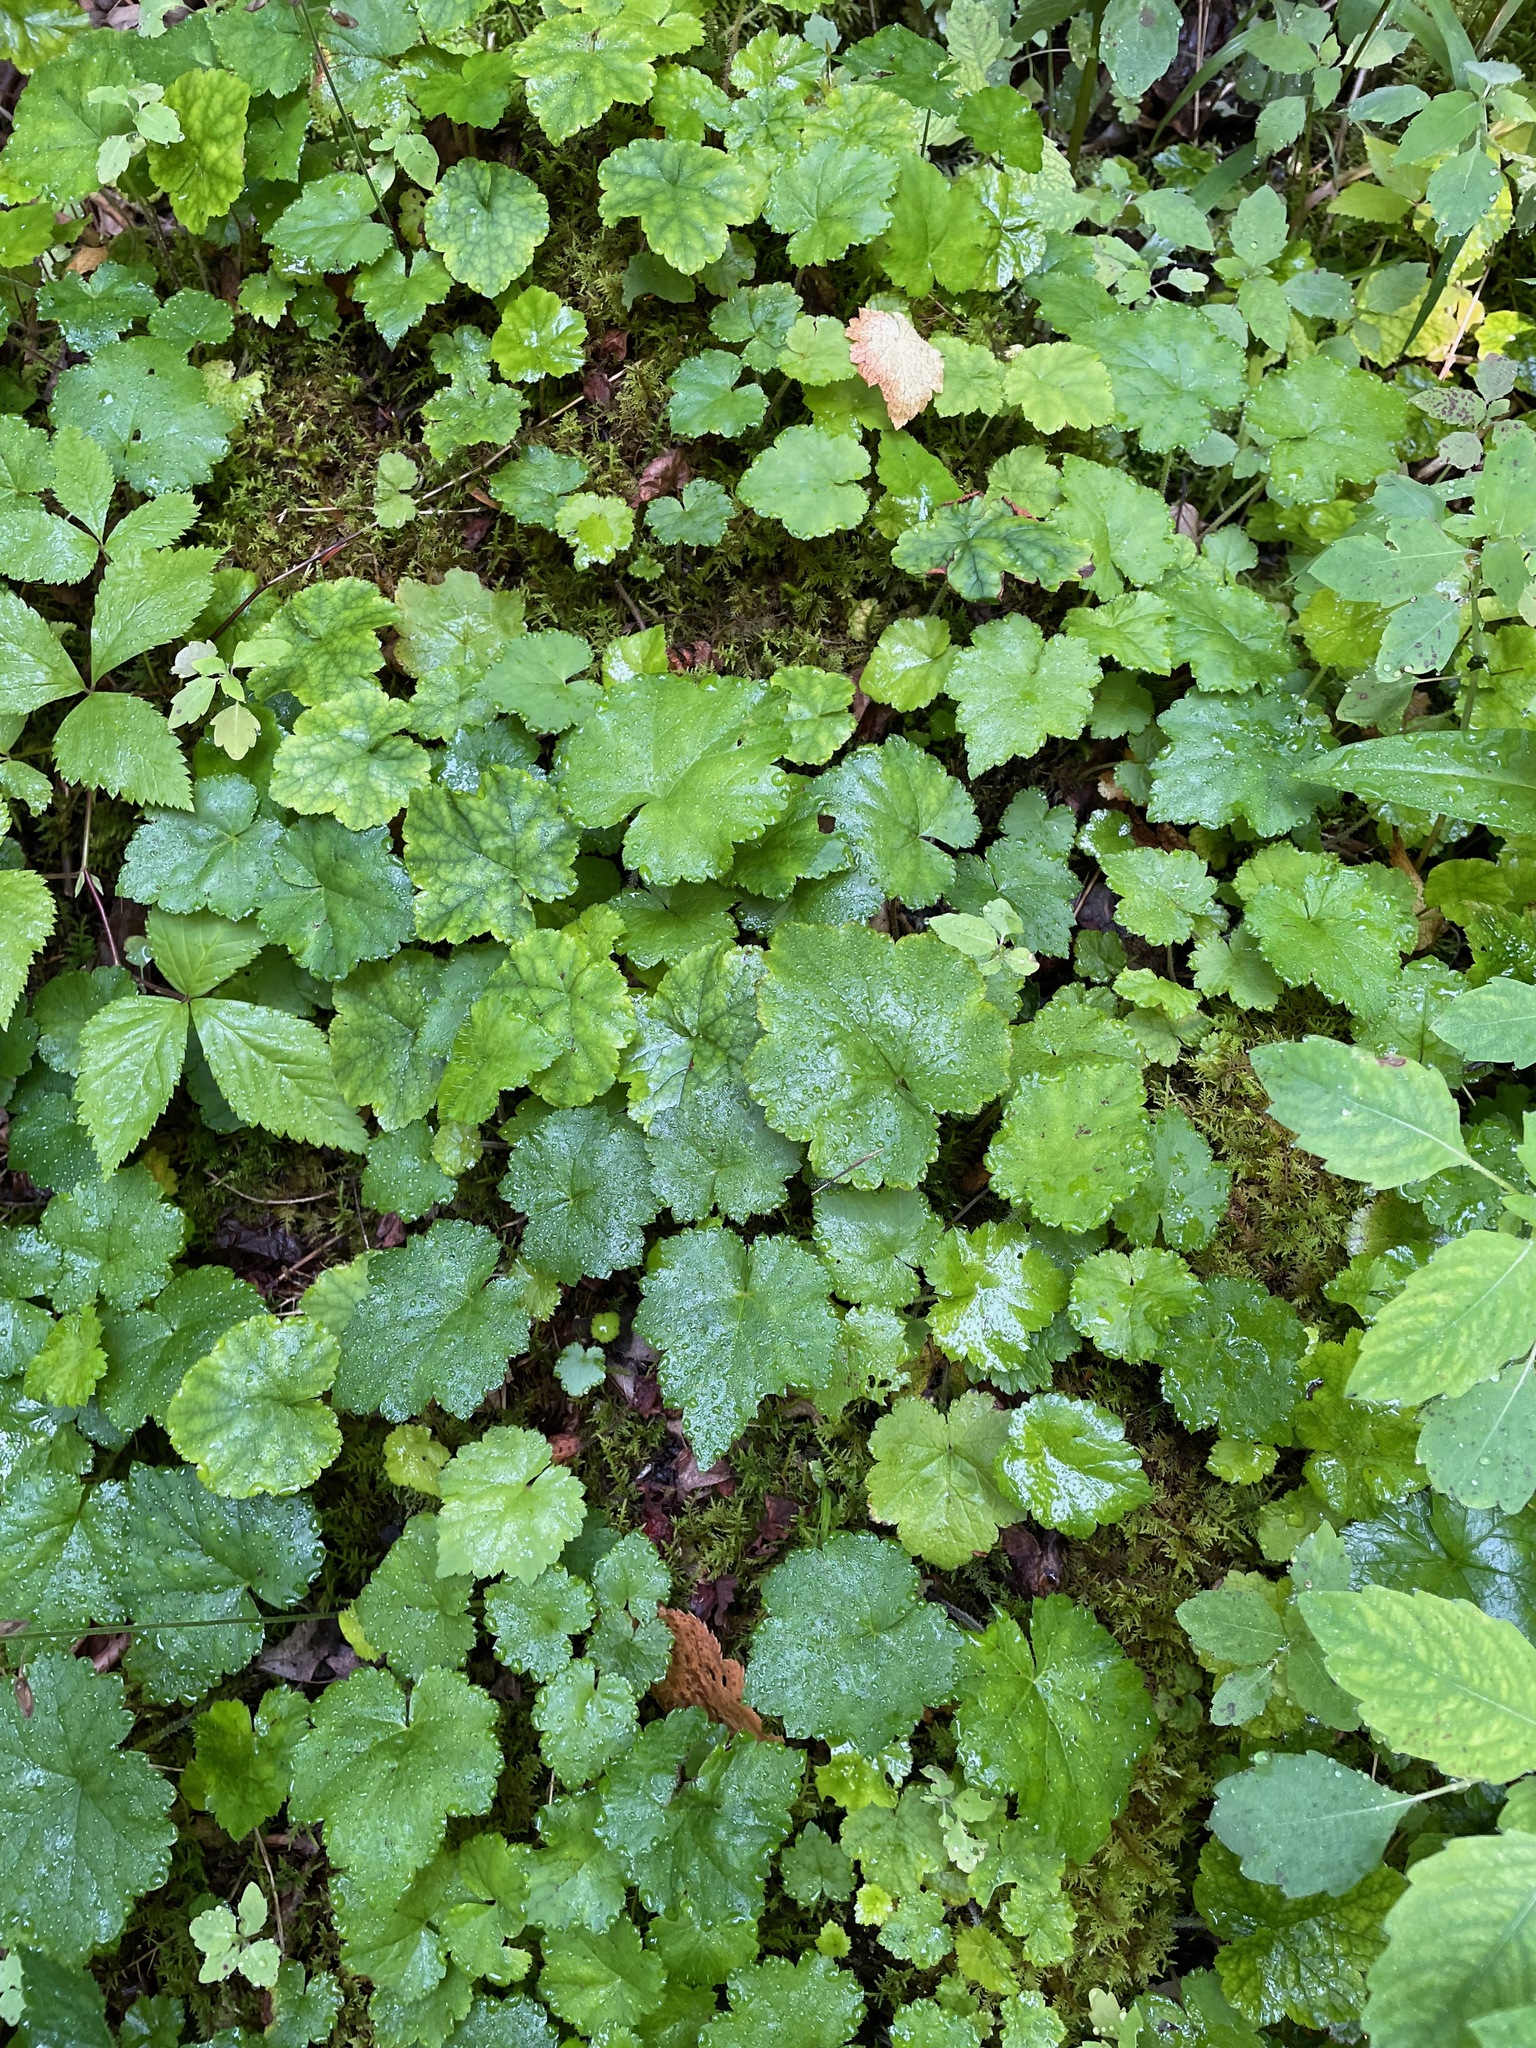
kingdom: Plantae
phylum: Tracheophyta
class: Magnoliopsida
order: Saxifragales
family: Saxifragaceae
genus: Tiarella
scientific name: Tiarella stolonifera
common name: Stoloniferous foamflower
